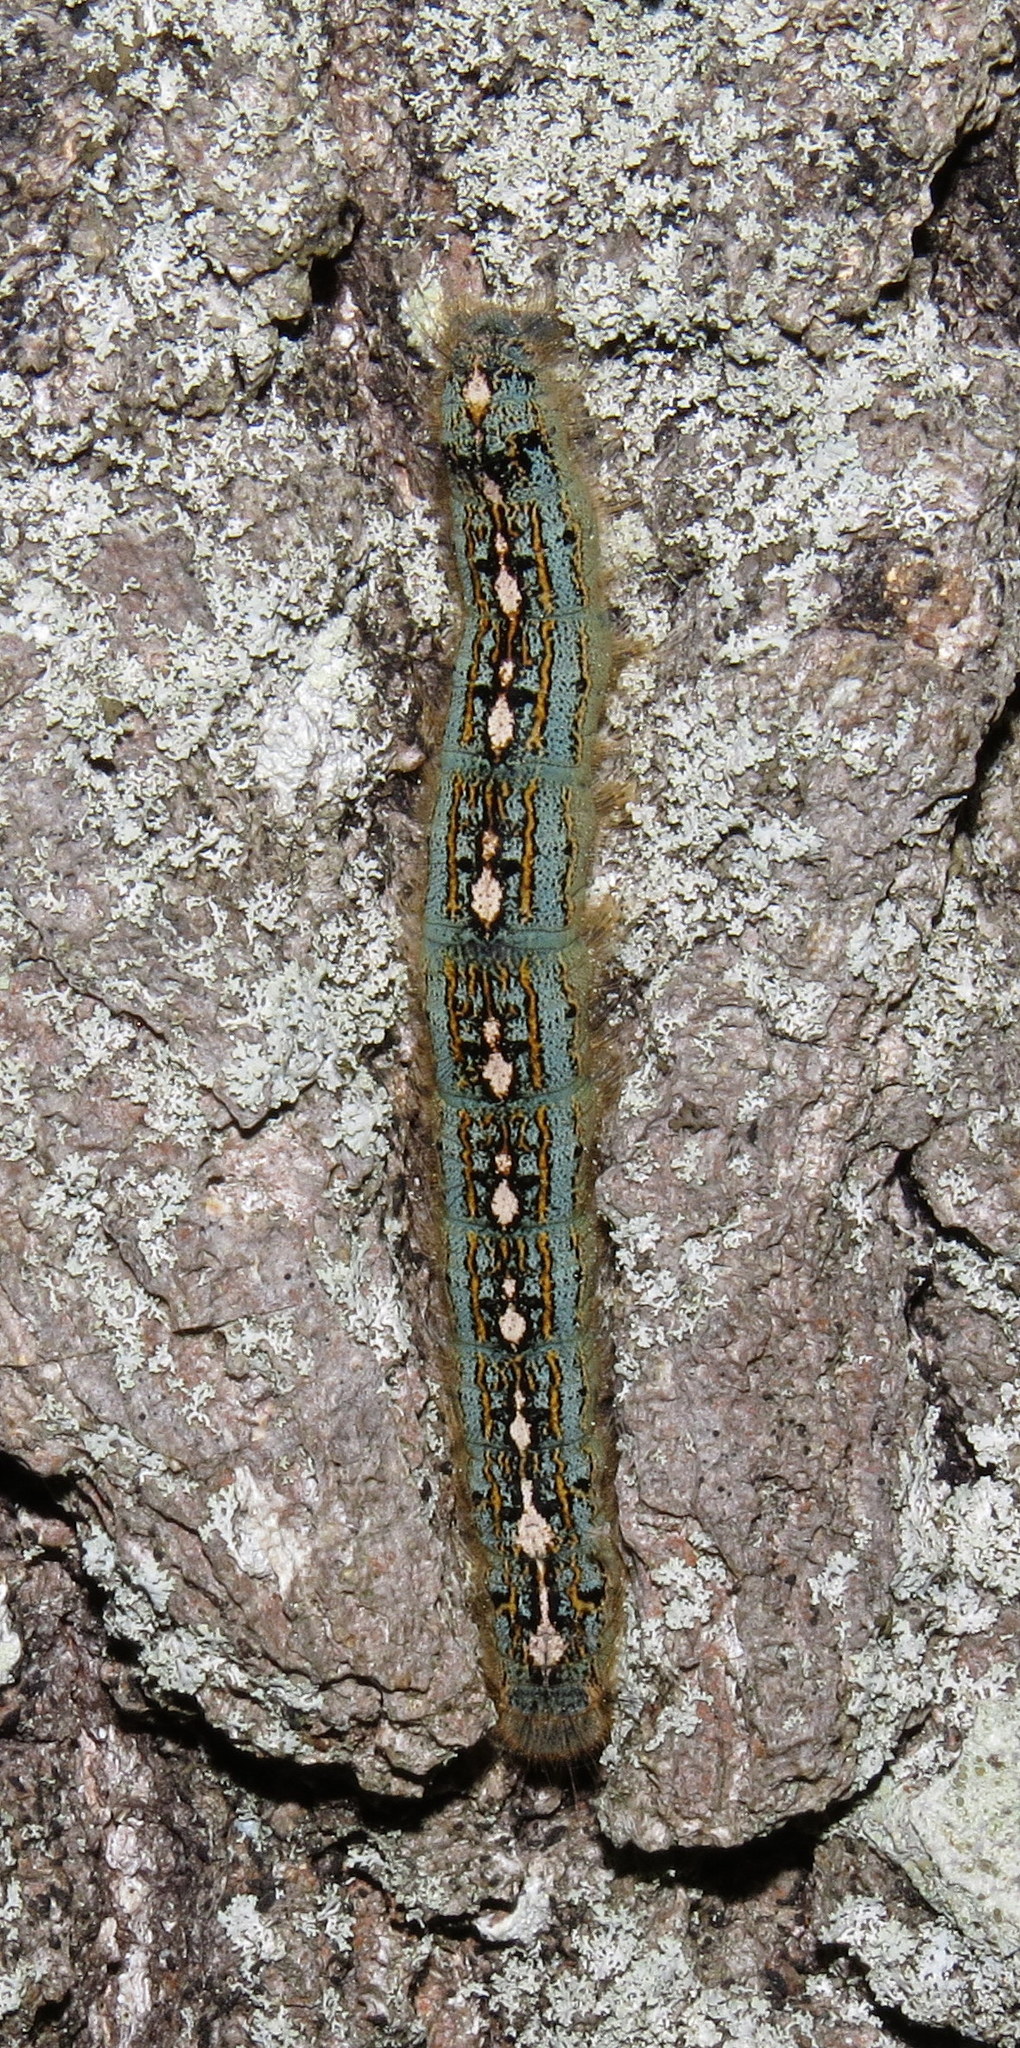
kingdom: Animalia
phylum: Arthropoda
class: Insecta
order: Lepidoptera
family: Lasiocampidae
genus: Malacosoma
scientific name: Malacosoma disstria
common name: Forest tent caterpillar
